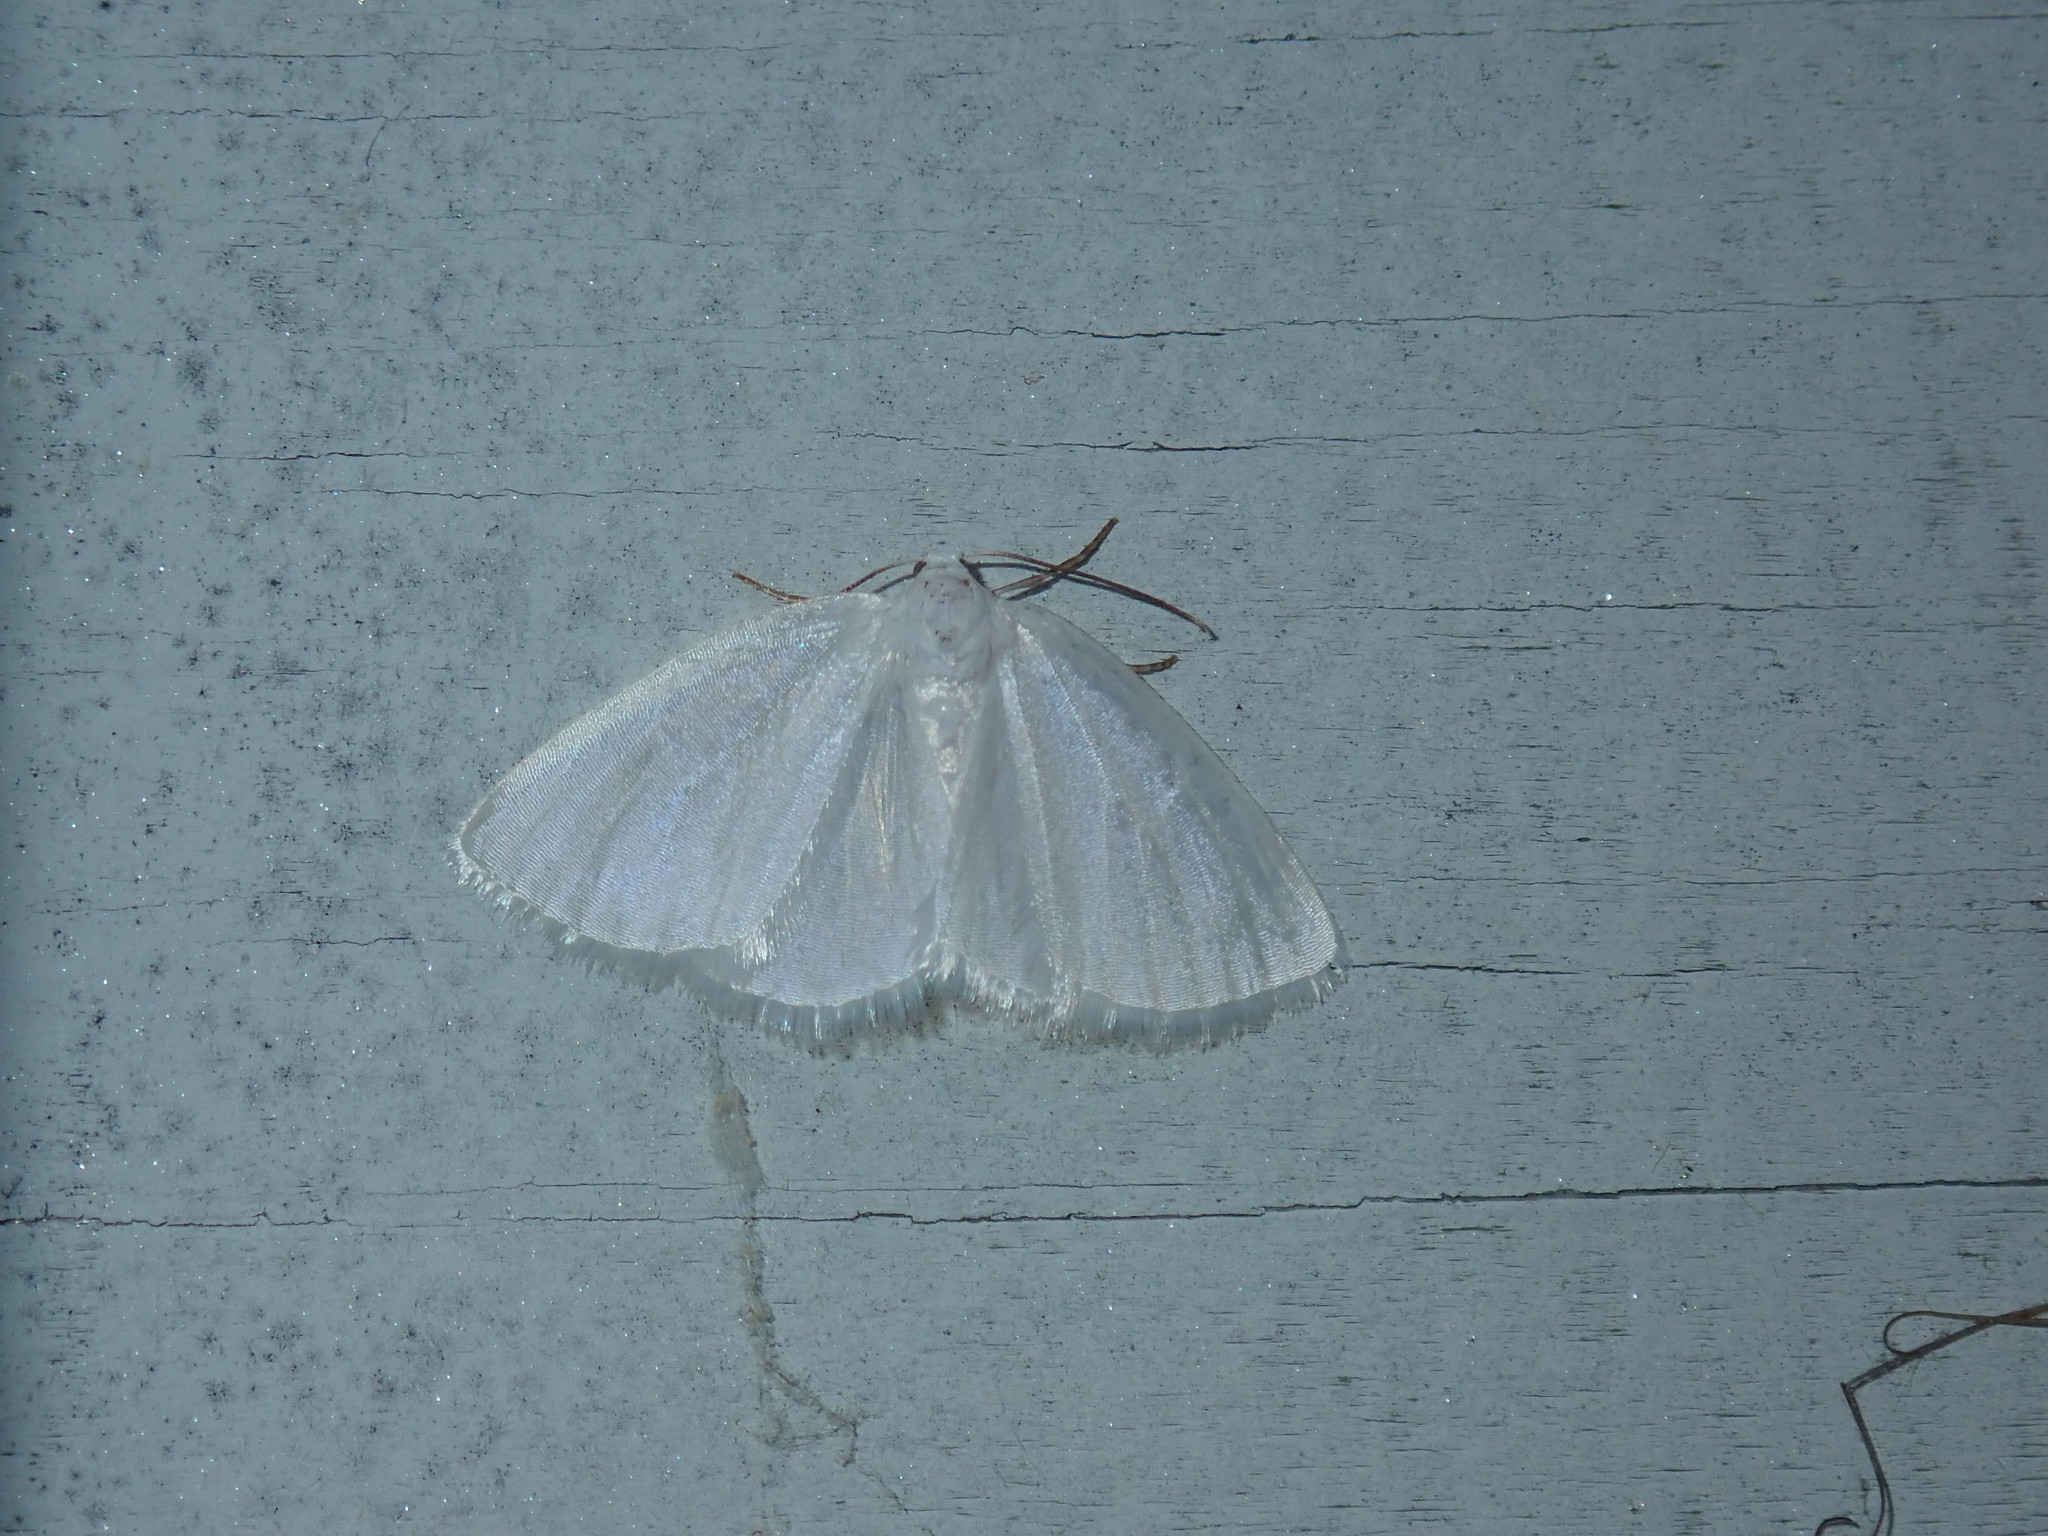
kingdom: Animalia
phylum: Arthropoda
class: Insecta
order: Lepidoptera
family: Geometridae
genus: Lomographa
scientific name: Lomographa vestaliata
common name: White spring moth
